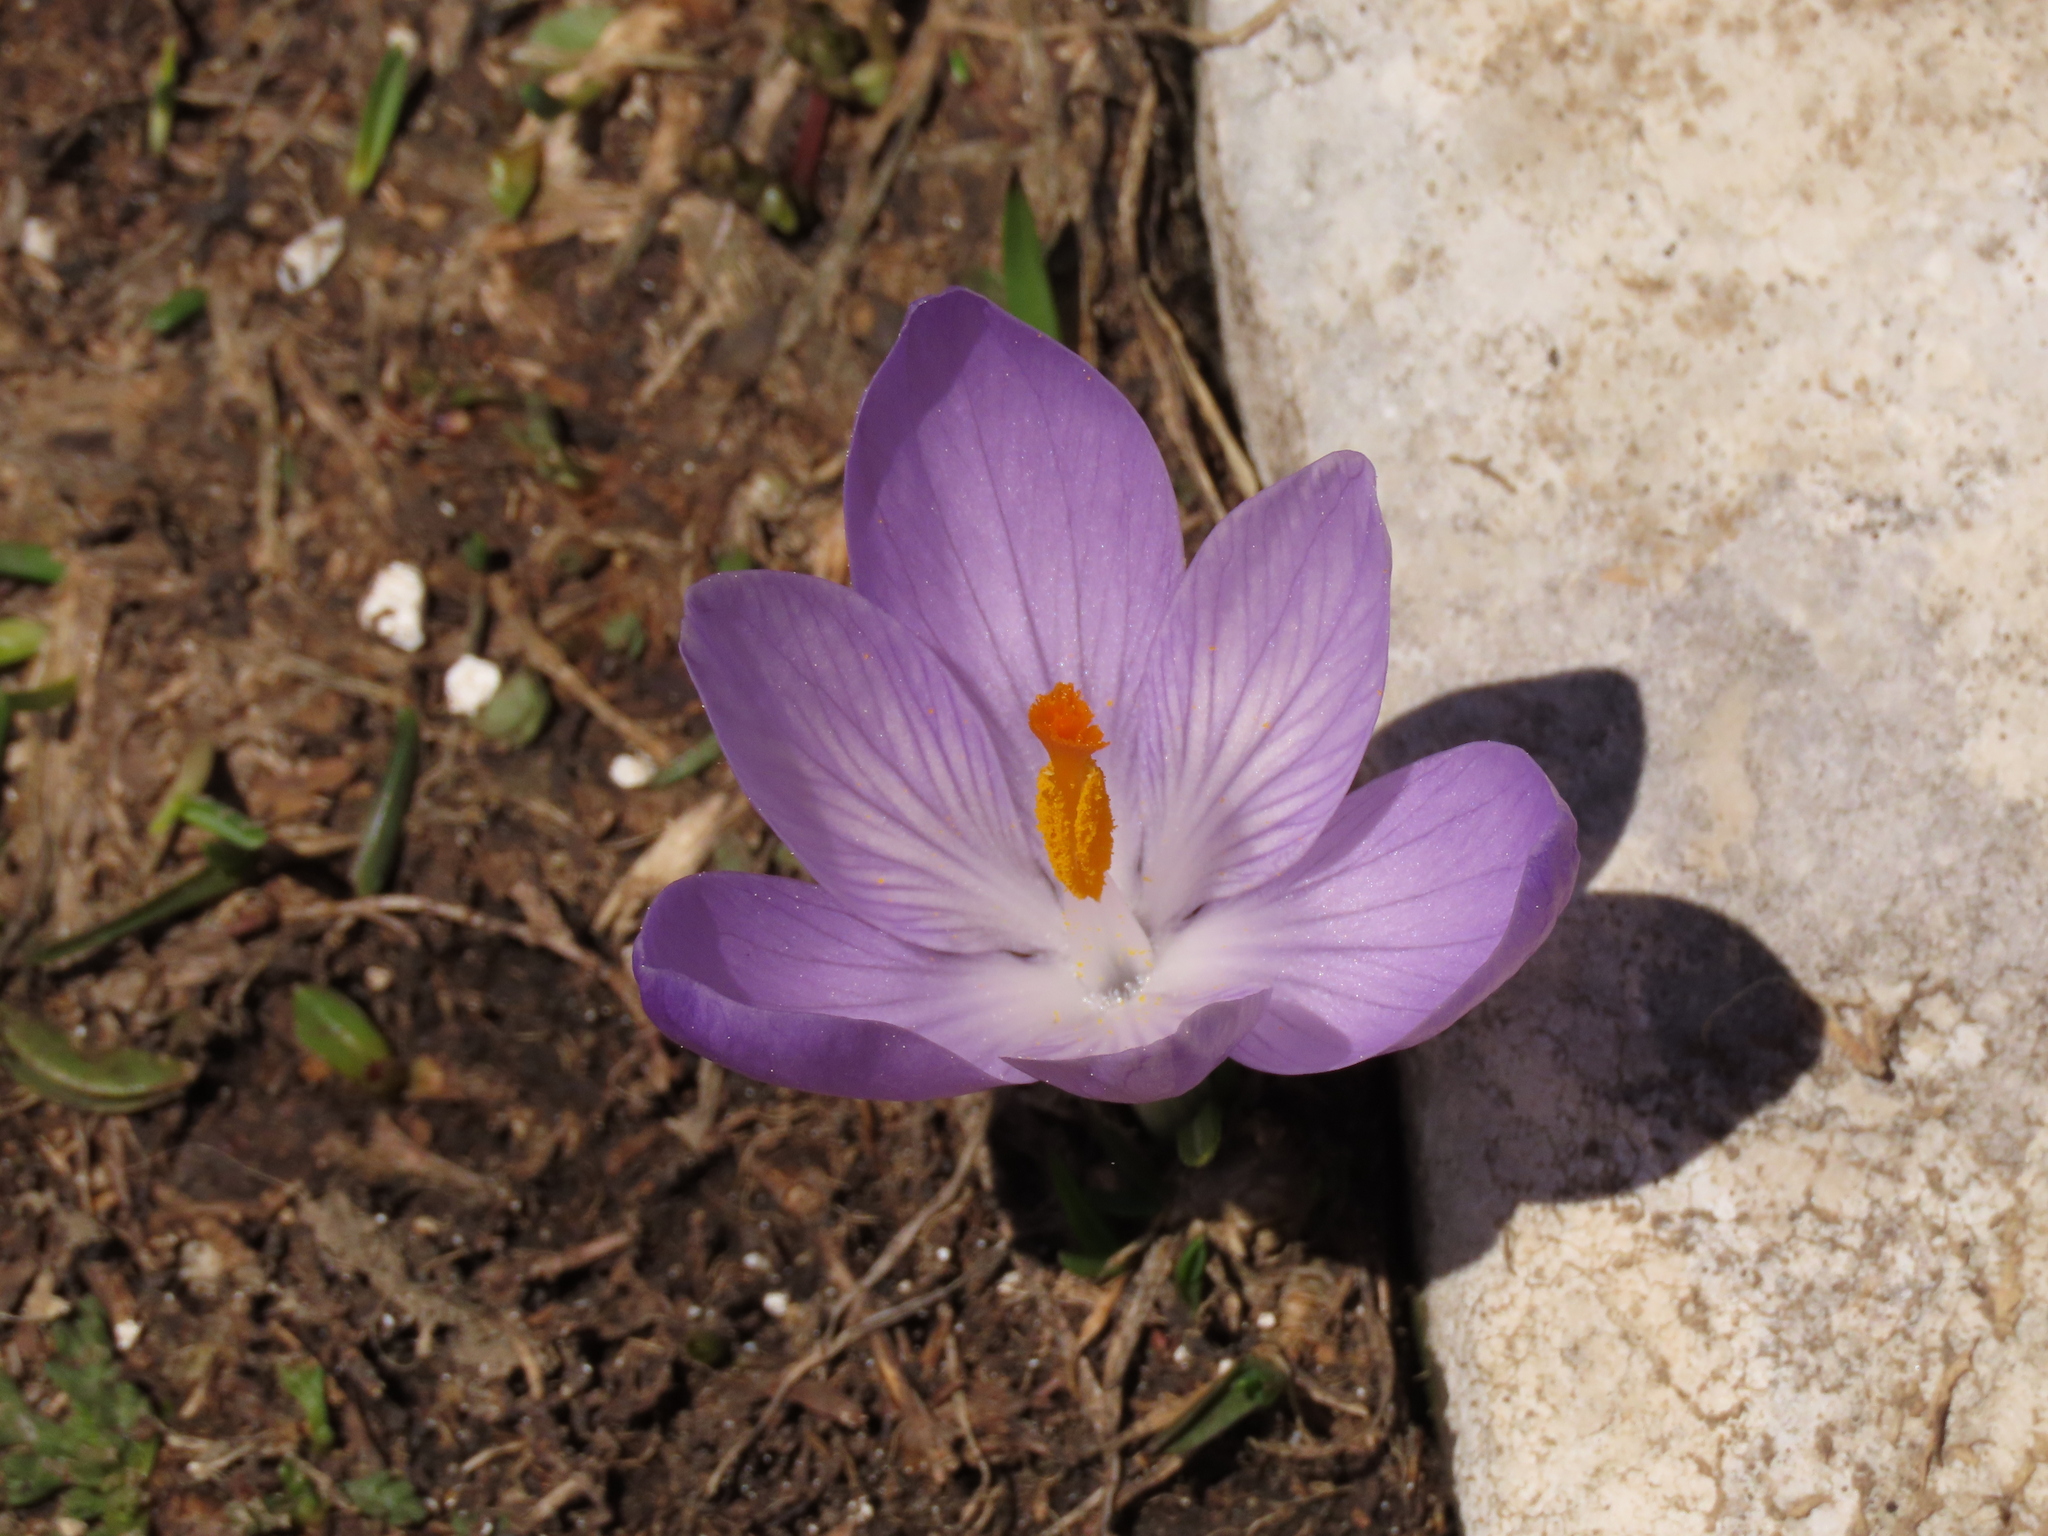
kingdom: Plantae
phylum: Tracheophyta
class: Liliopsida
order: Asparagales
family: Iridaceae
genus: Crocus
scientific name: Crocus neapolitanus
